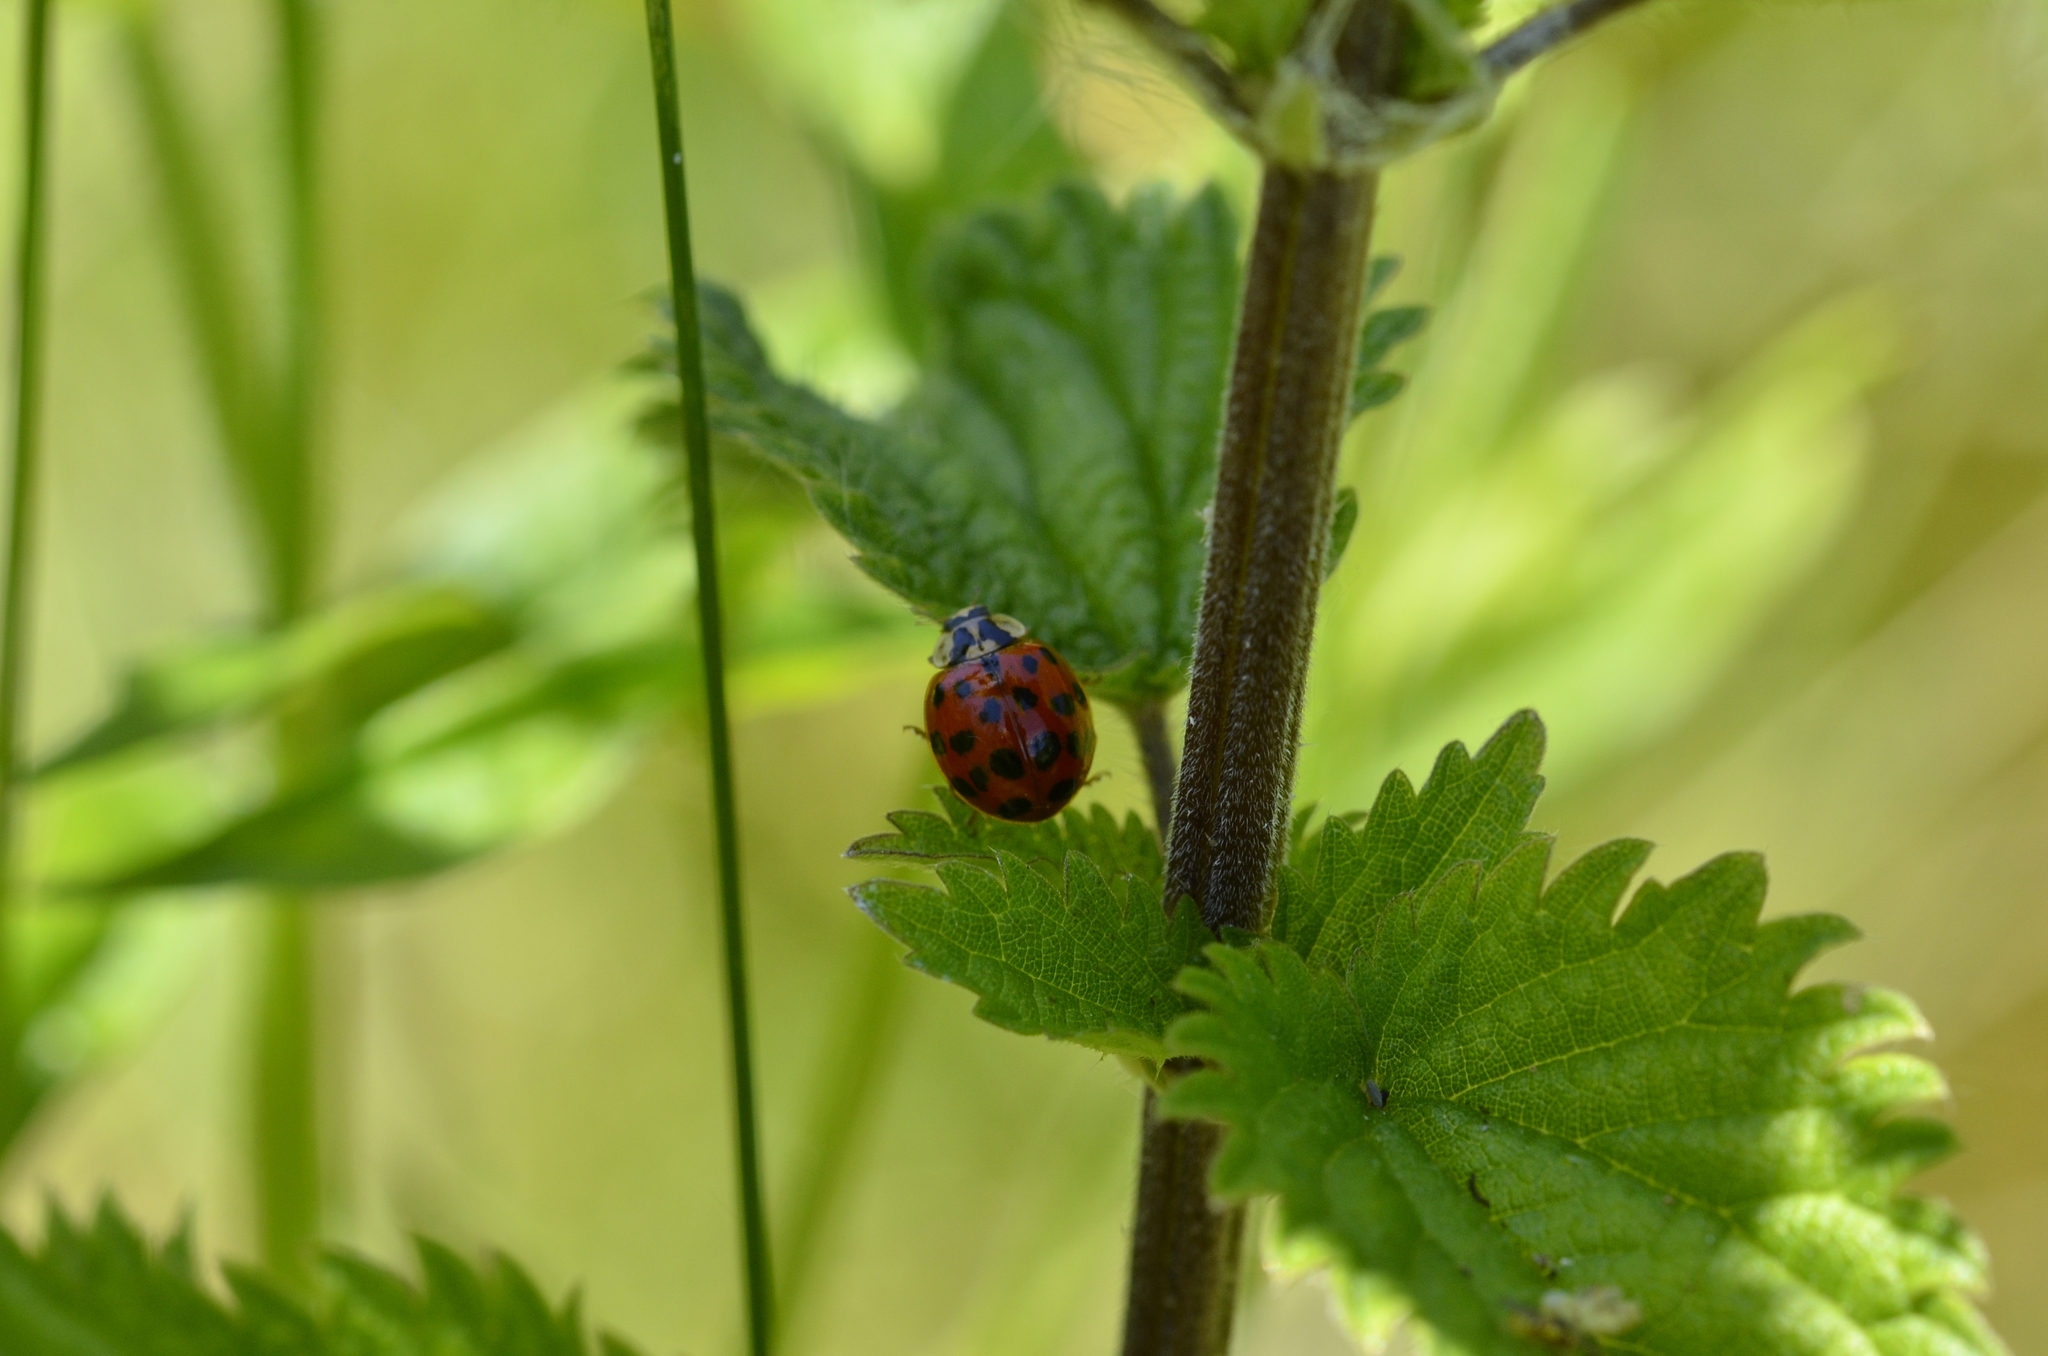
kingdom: Animalia
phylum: Arthropoda
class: Insecta
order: Coleoptera
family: Coccinellidae
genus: Harmonia
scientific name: Harmonia axyridis
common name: Harlequin ladybird
